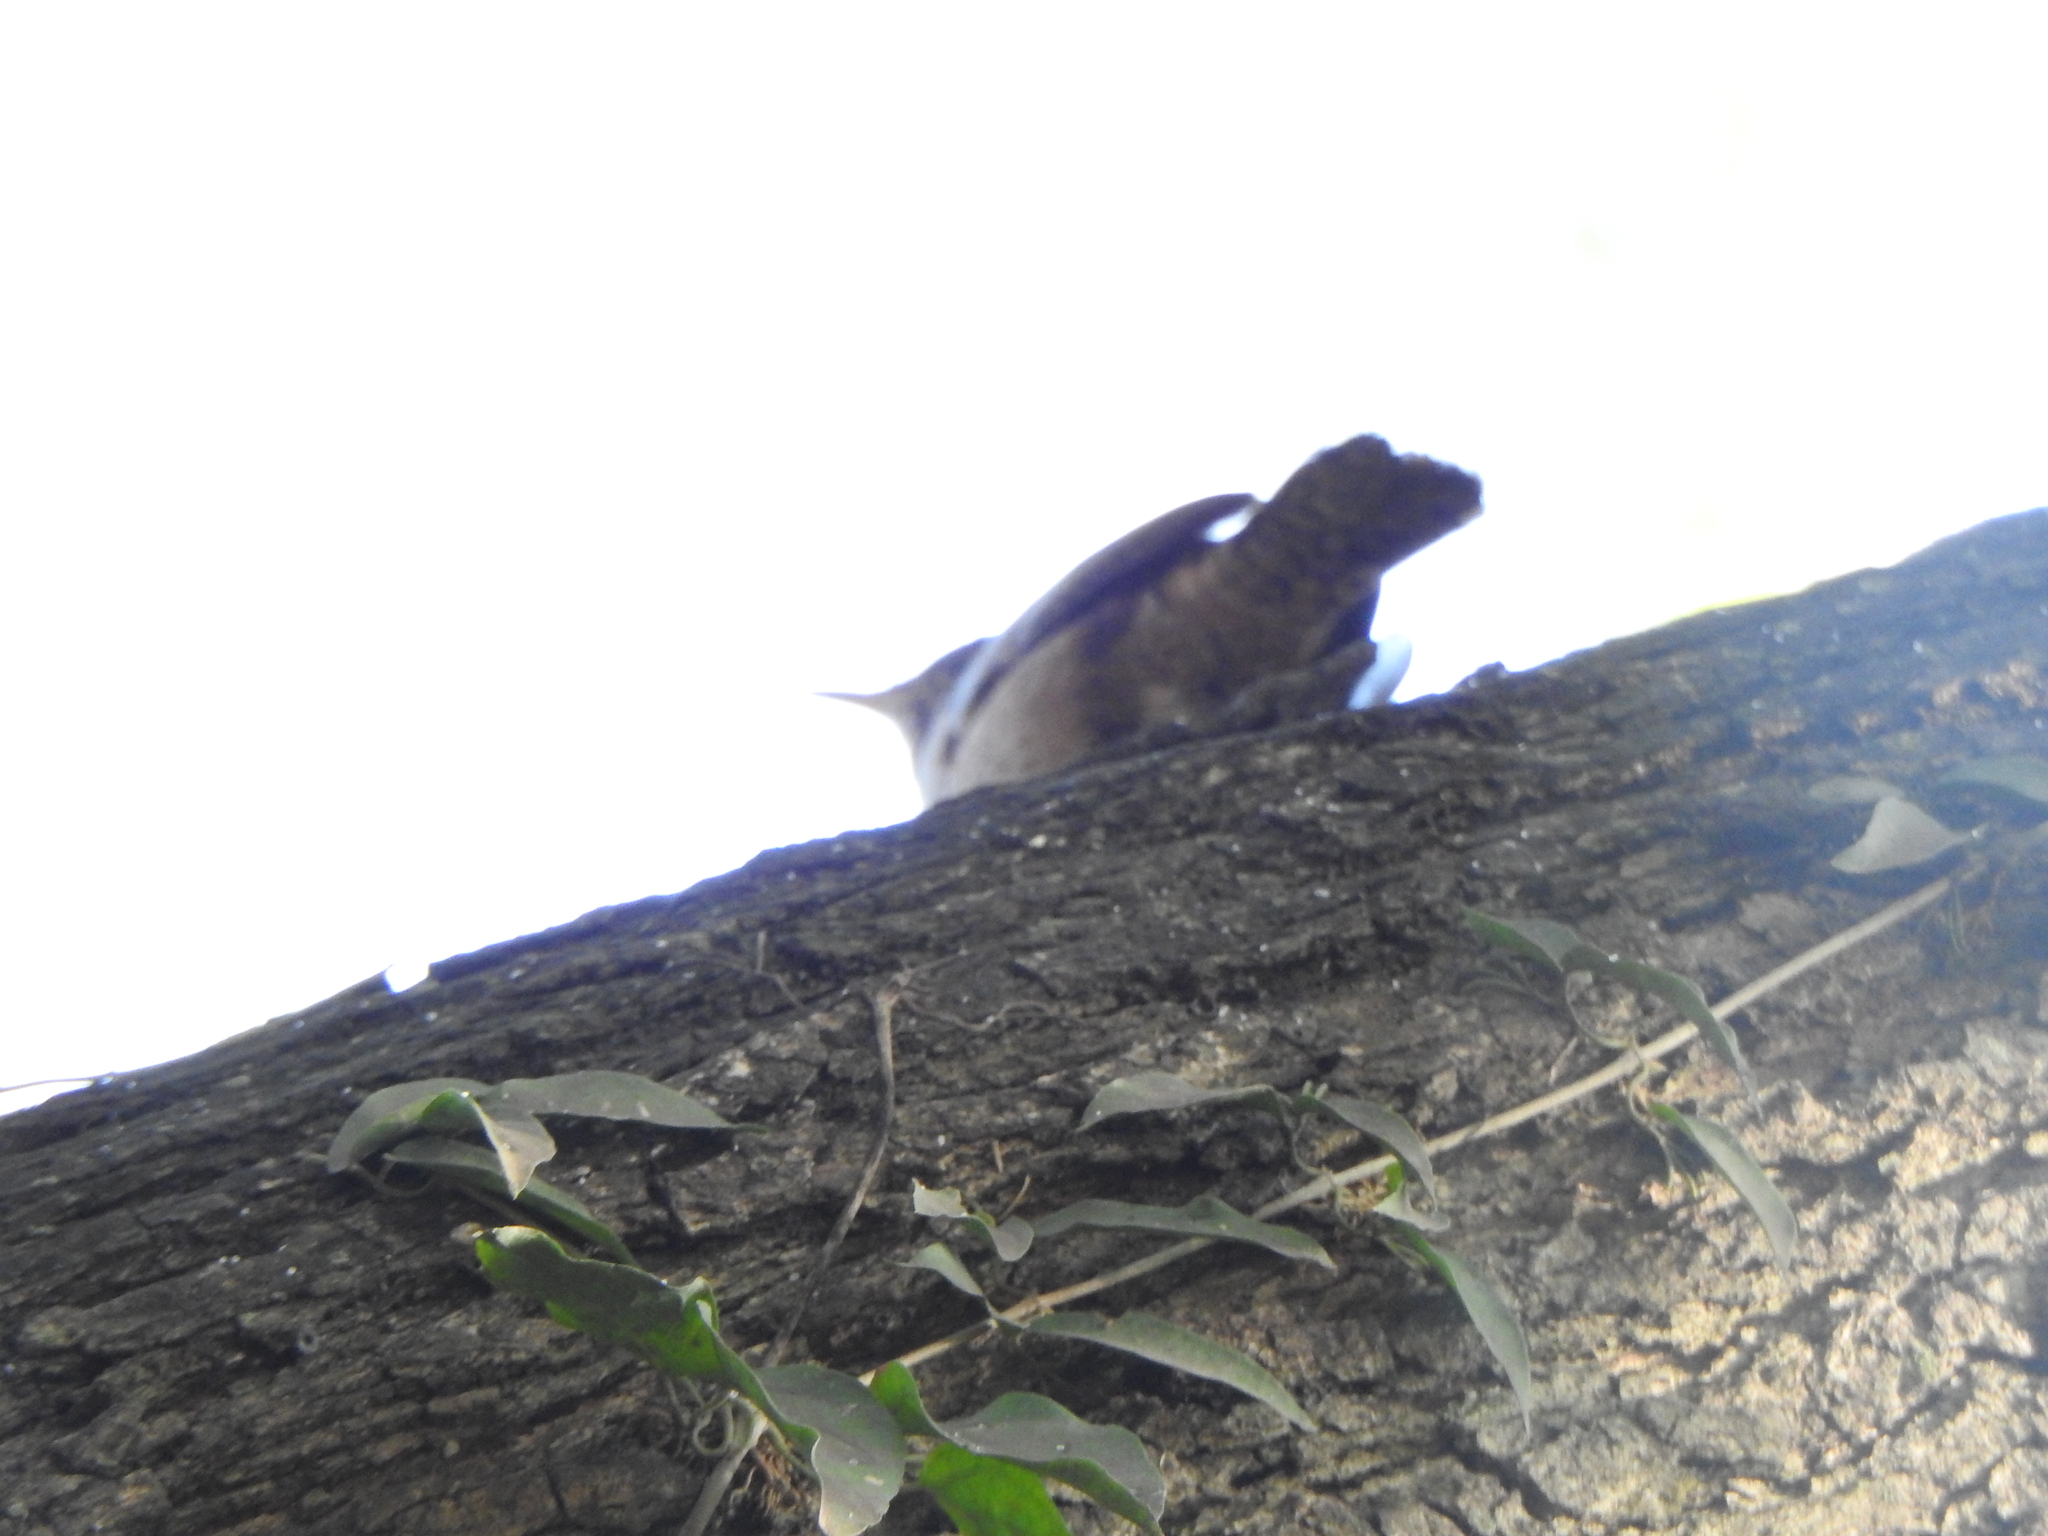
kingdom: Animalia
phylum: Chordata
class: Aves
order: Passeriformes
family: Troglodytidae
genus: Troglodytes
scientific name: Troglodytes aedon
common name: House wren
